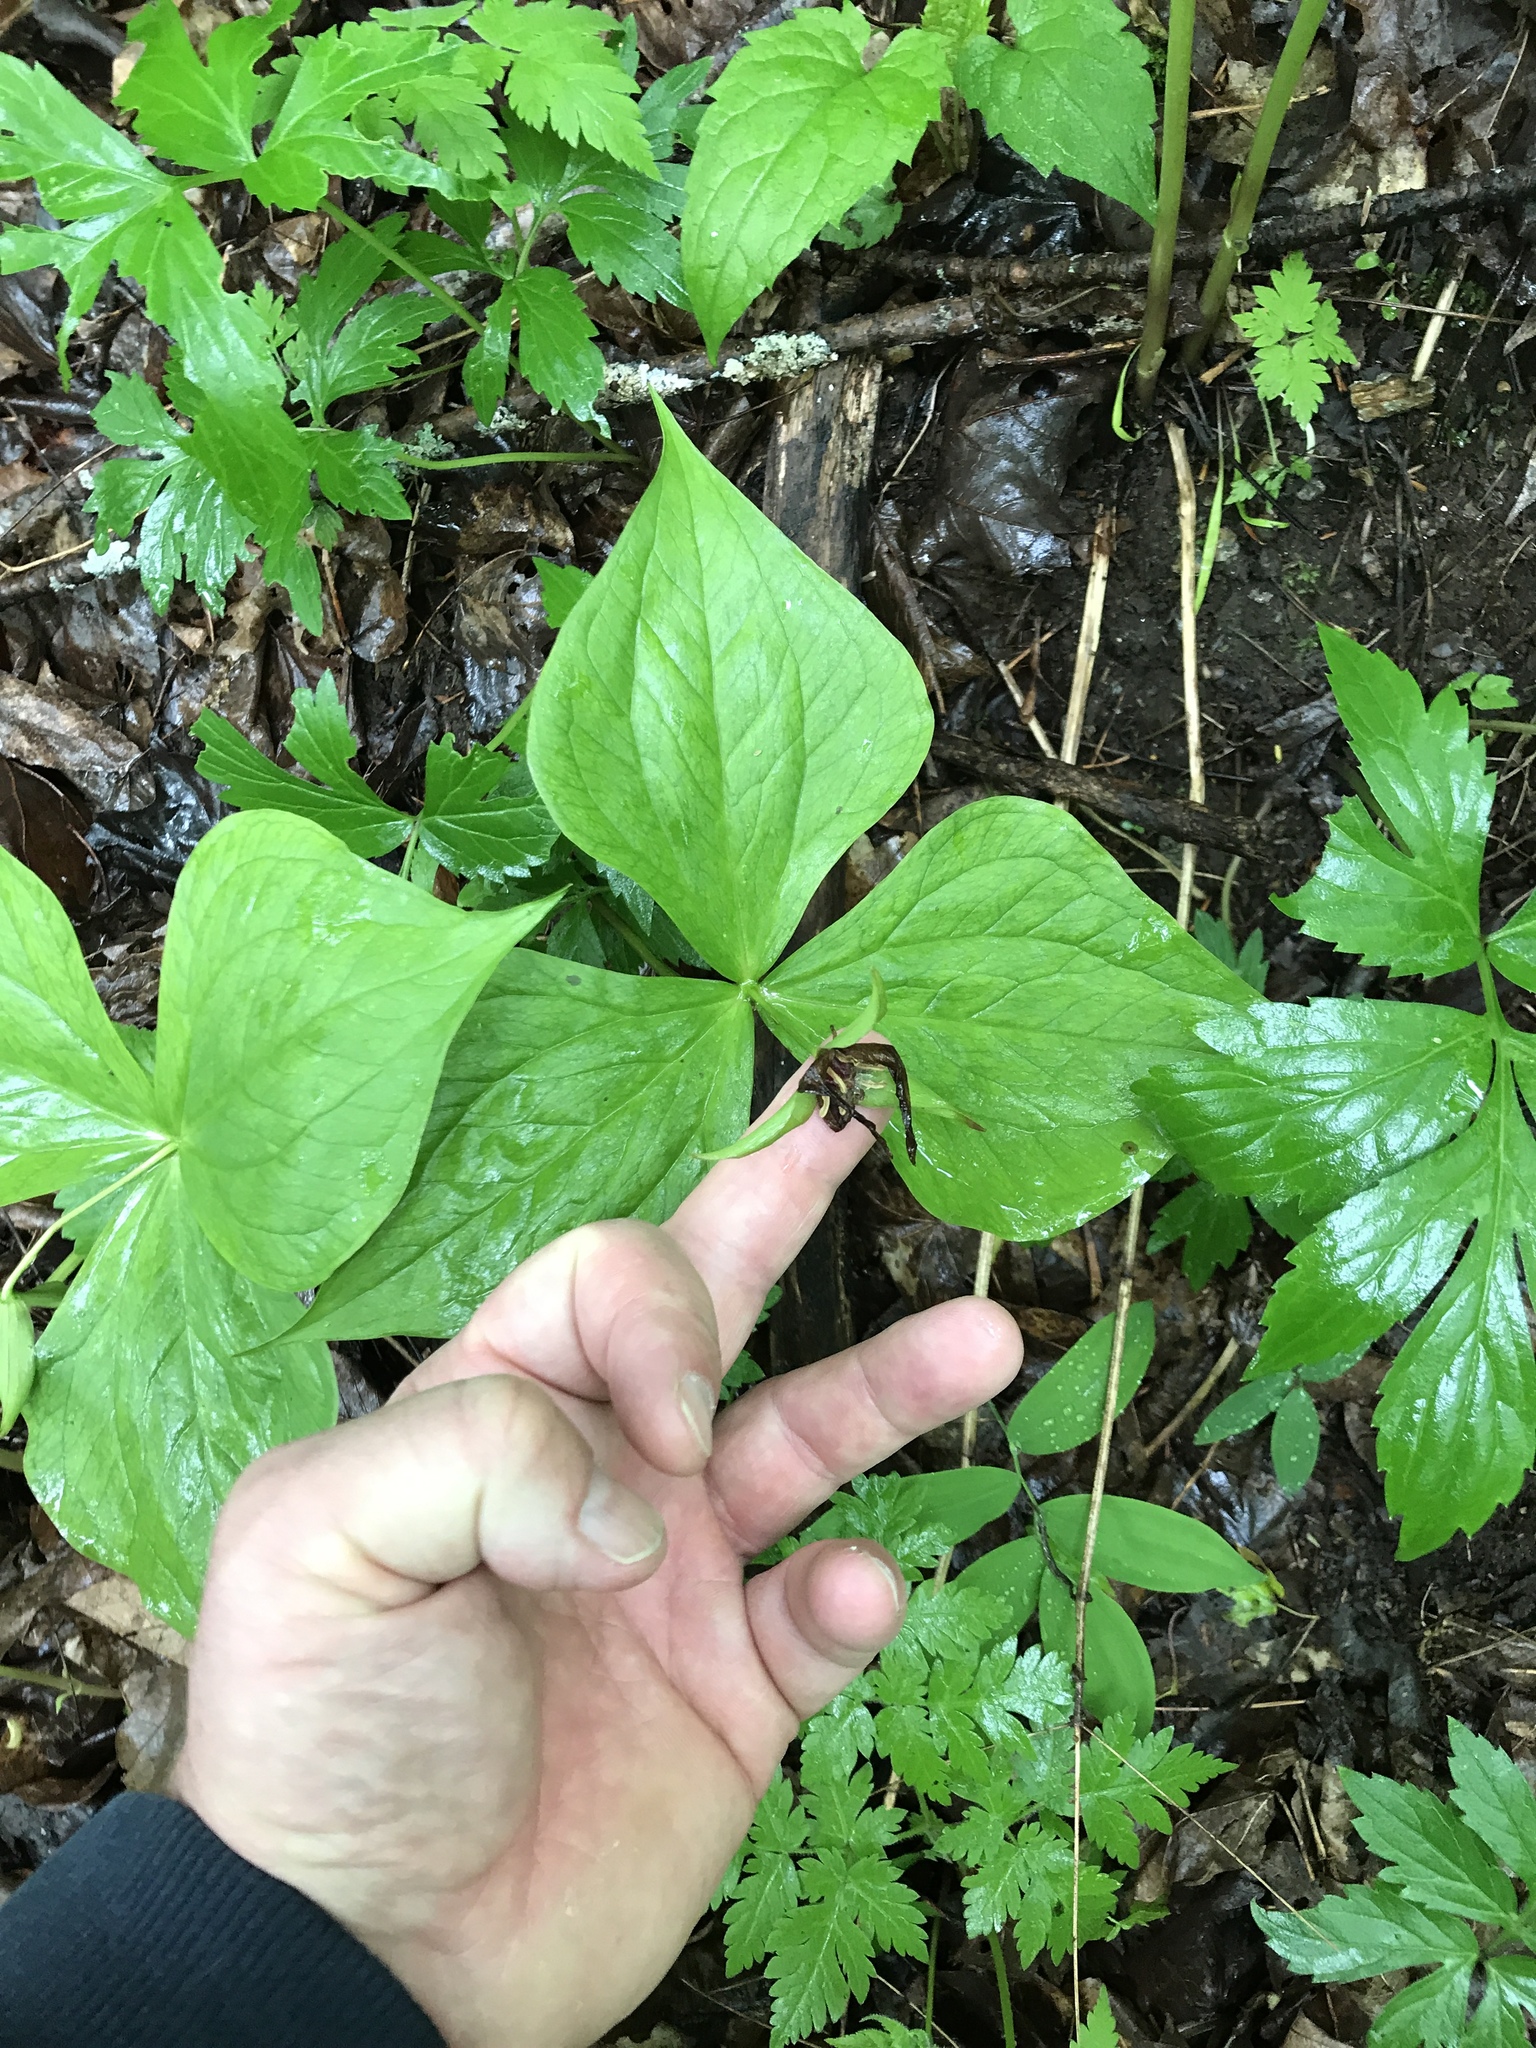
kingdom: Plantae
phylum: Tracheophyta
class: Liliopsida
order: Liliales
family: Melanthiaceae
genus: Trillium
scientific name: Trillium erectum
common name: Purple trillium
